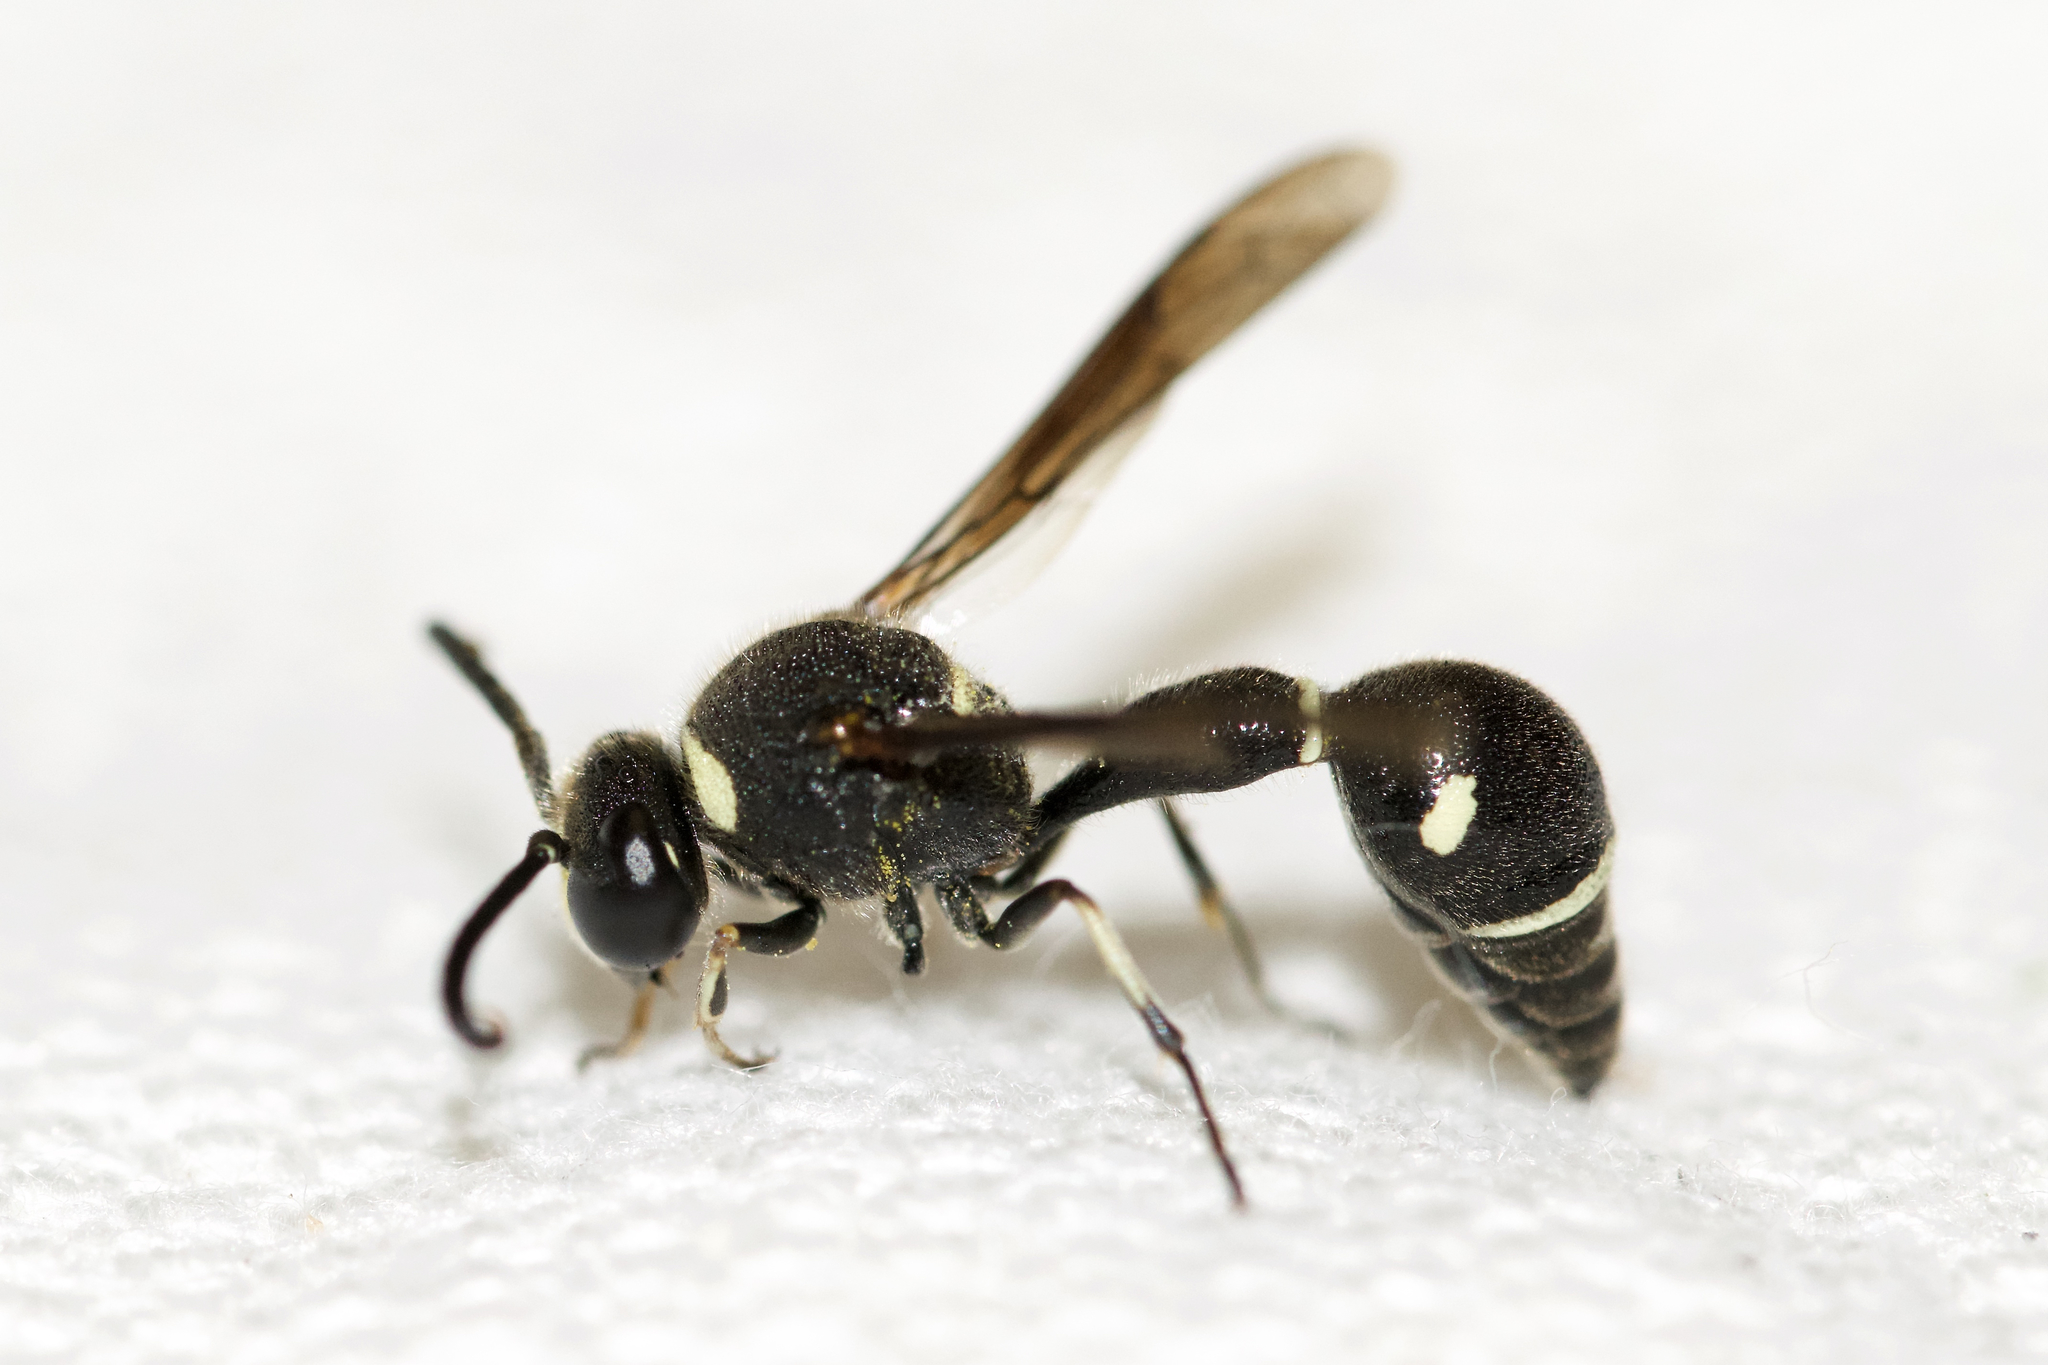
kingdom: Animalia
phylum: Arthropoda
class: Insecta
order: Hymenoptera
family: Vespidae
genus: Eumenes
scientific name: Eumenes fraternus
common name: Fraternal potter wasp
